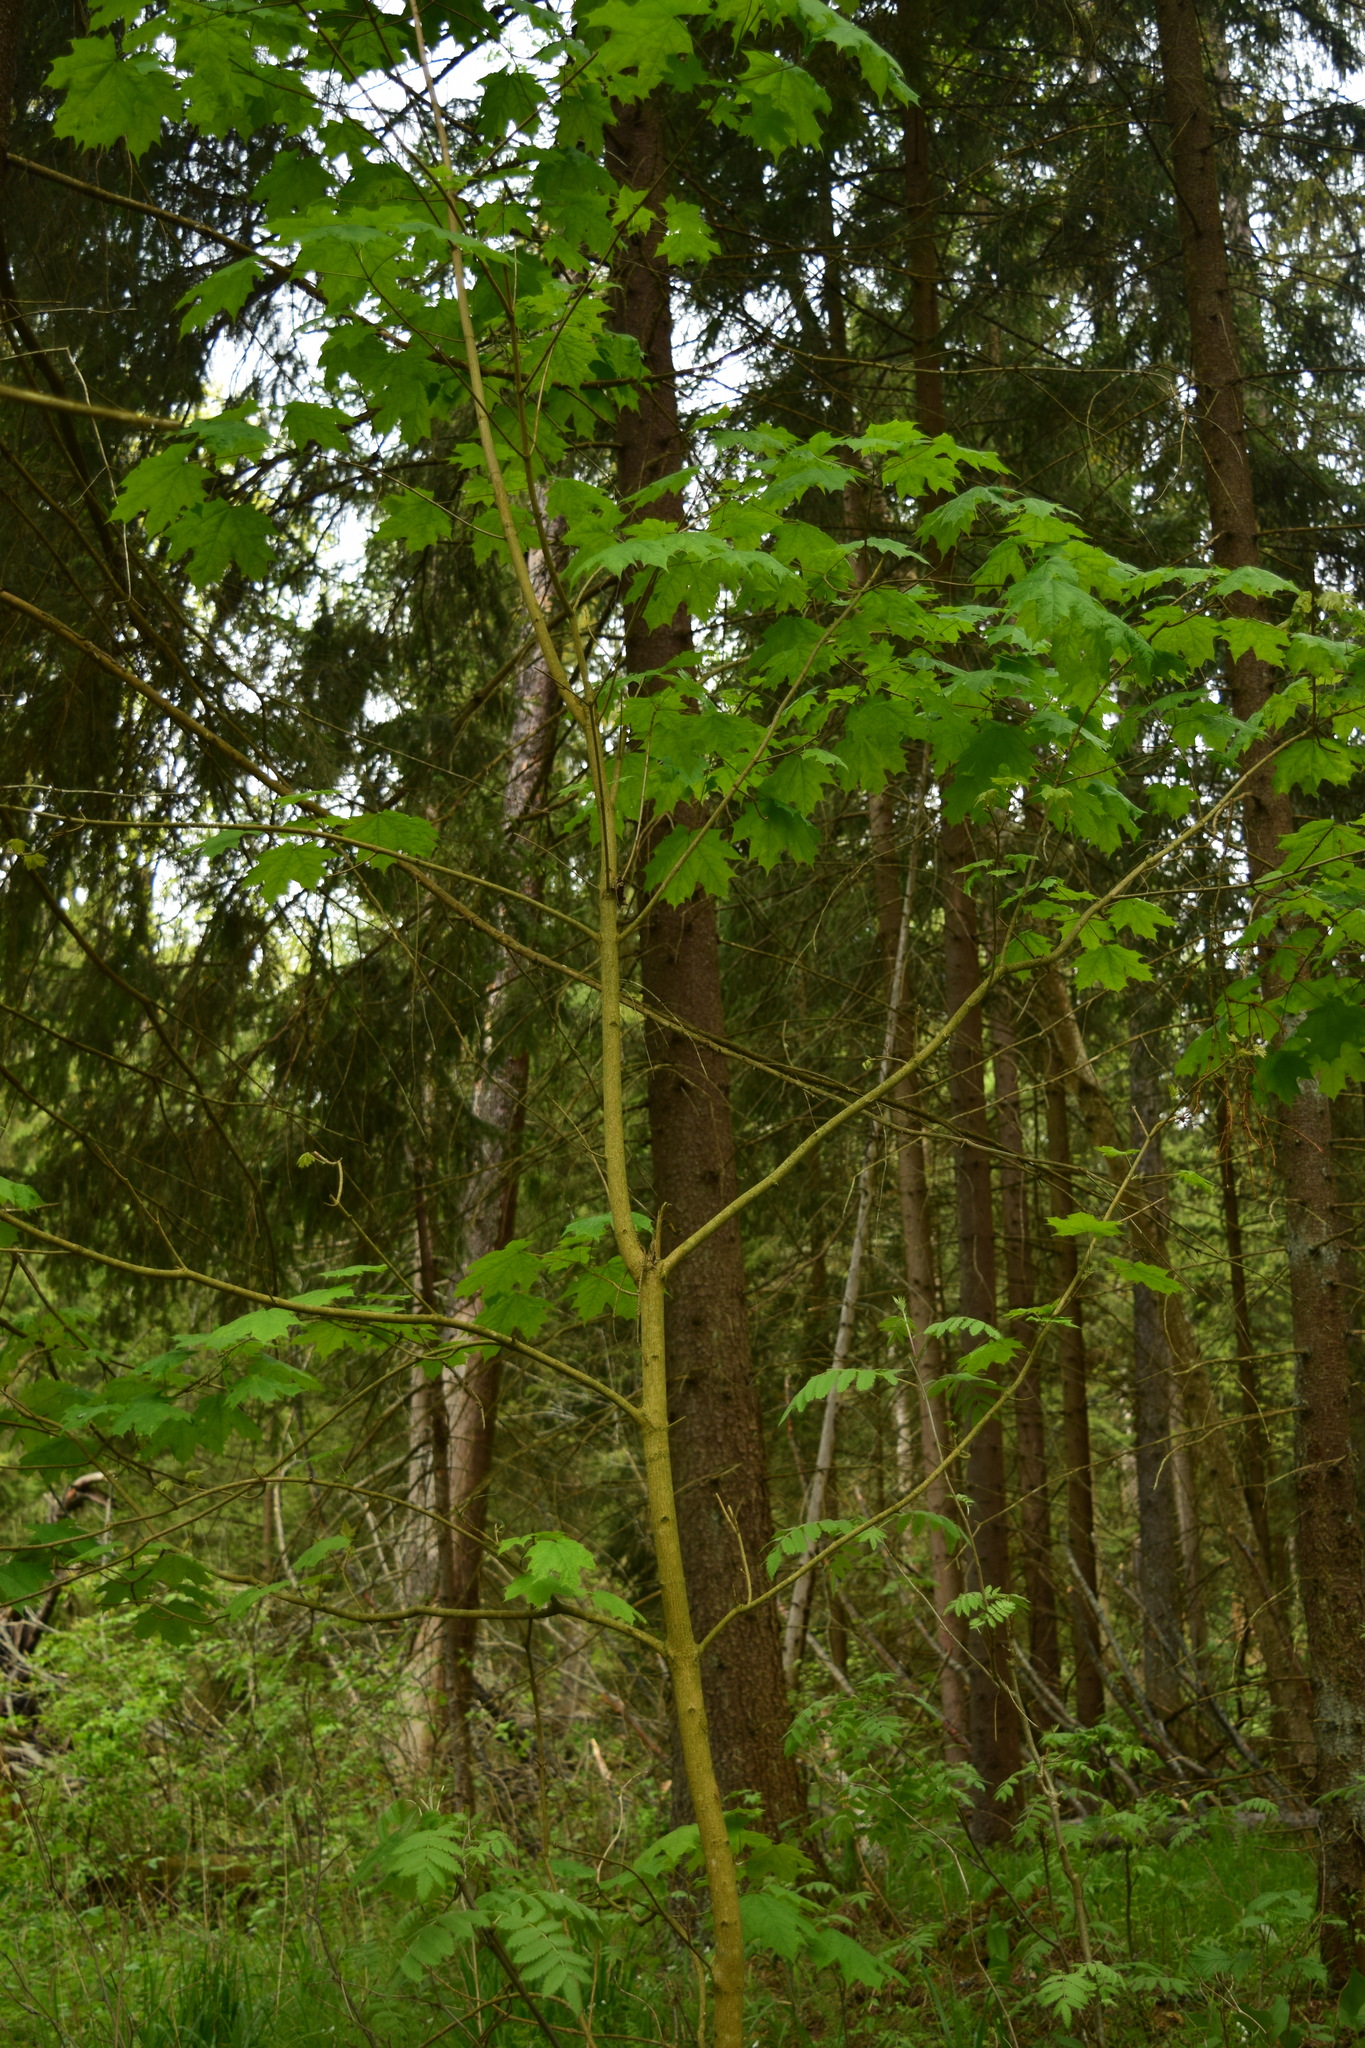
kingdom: Plantae
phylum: Tracheophyta
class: Magnoliopsida
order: Sapindales
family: Sapindaceae
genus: Acer
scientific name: Acer platanoides
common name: Norway maple
